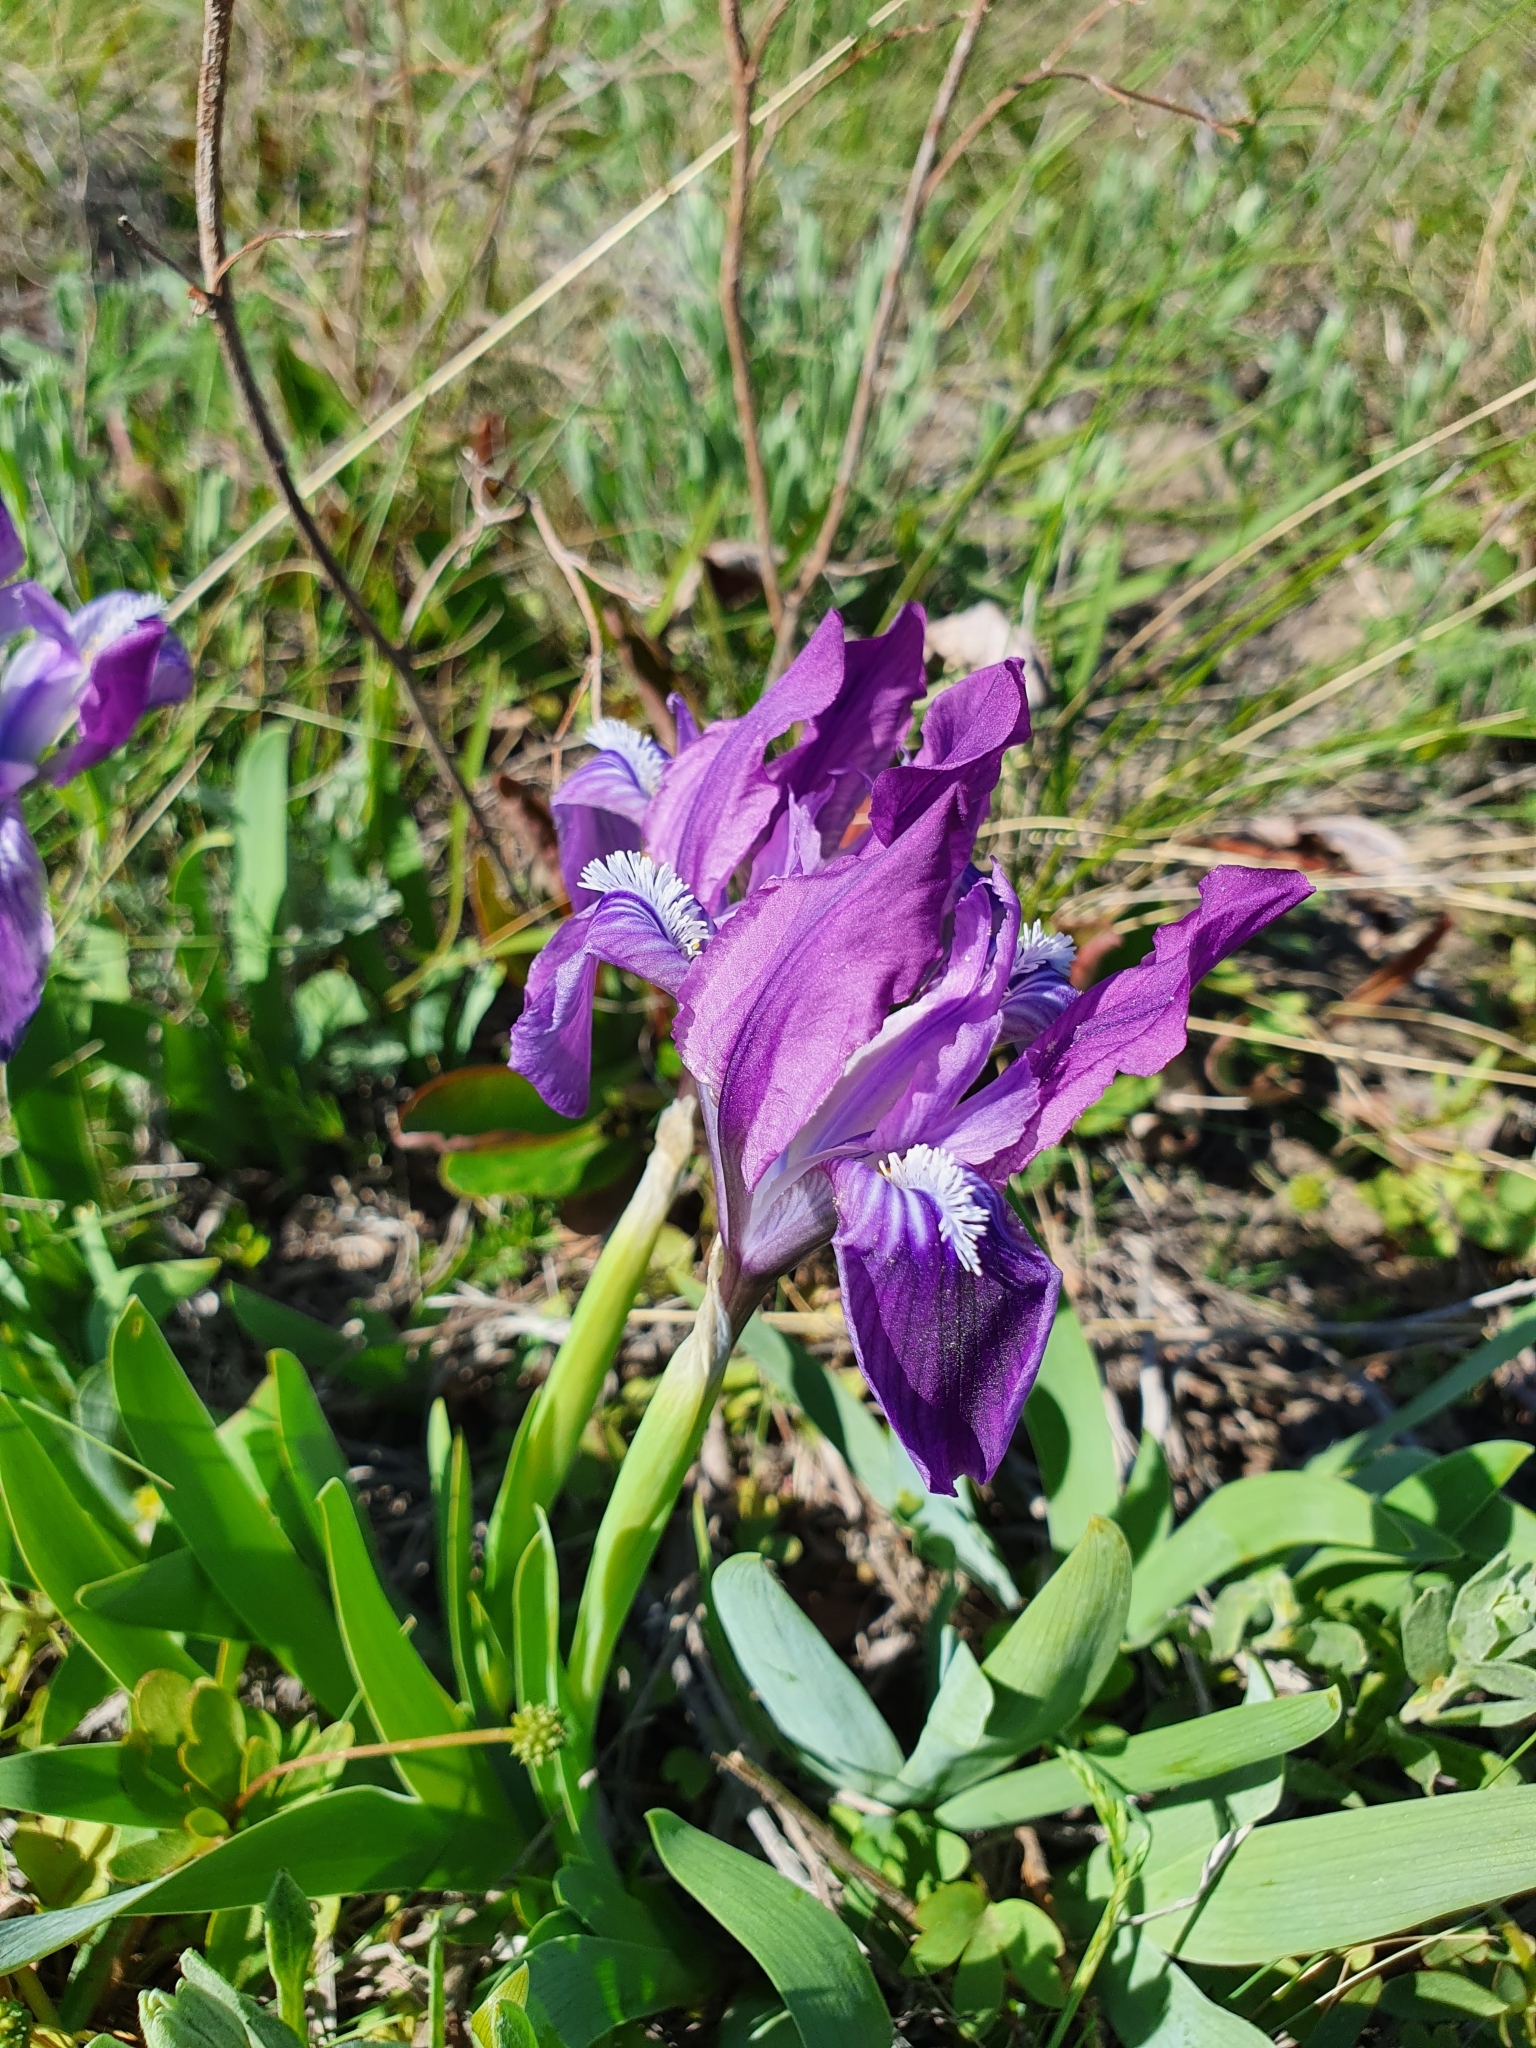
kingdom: Plantae
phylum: Tracheophyta
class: Liliopsida
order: Asparagales
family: Iridaceae
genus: Iris
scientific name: Iris pumila
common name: Dwarf iris
